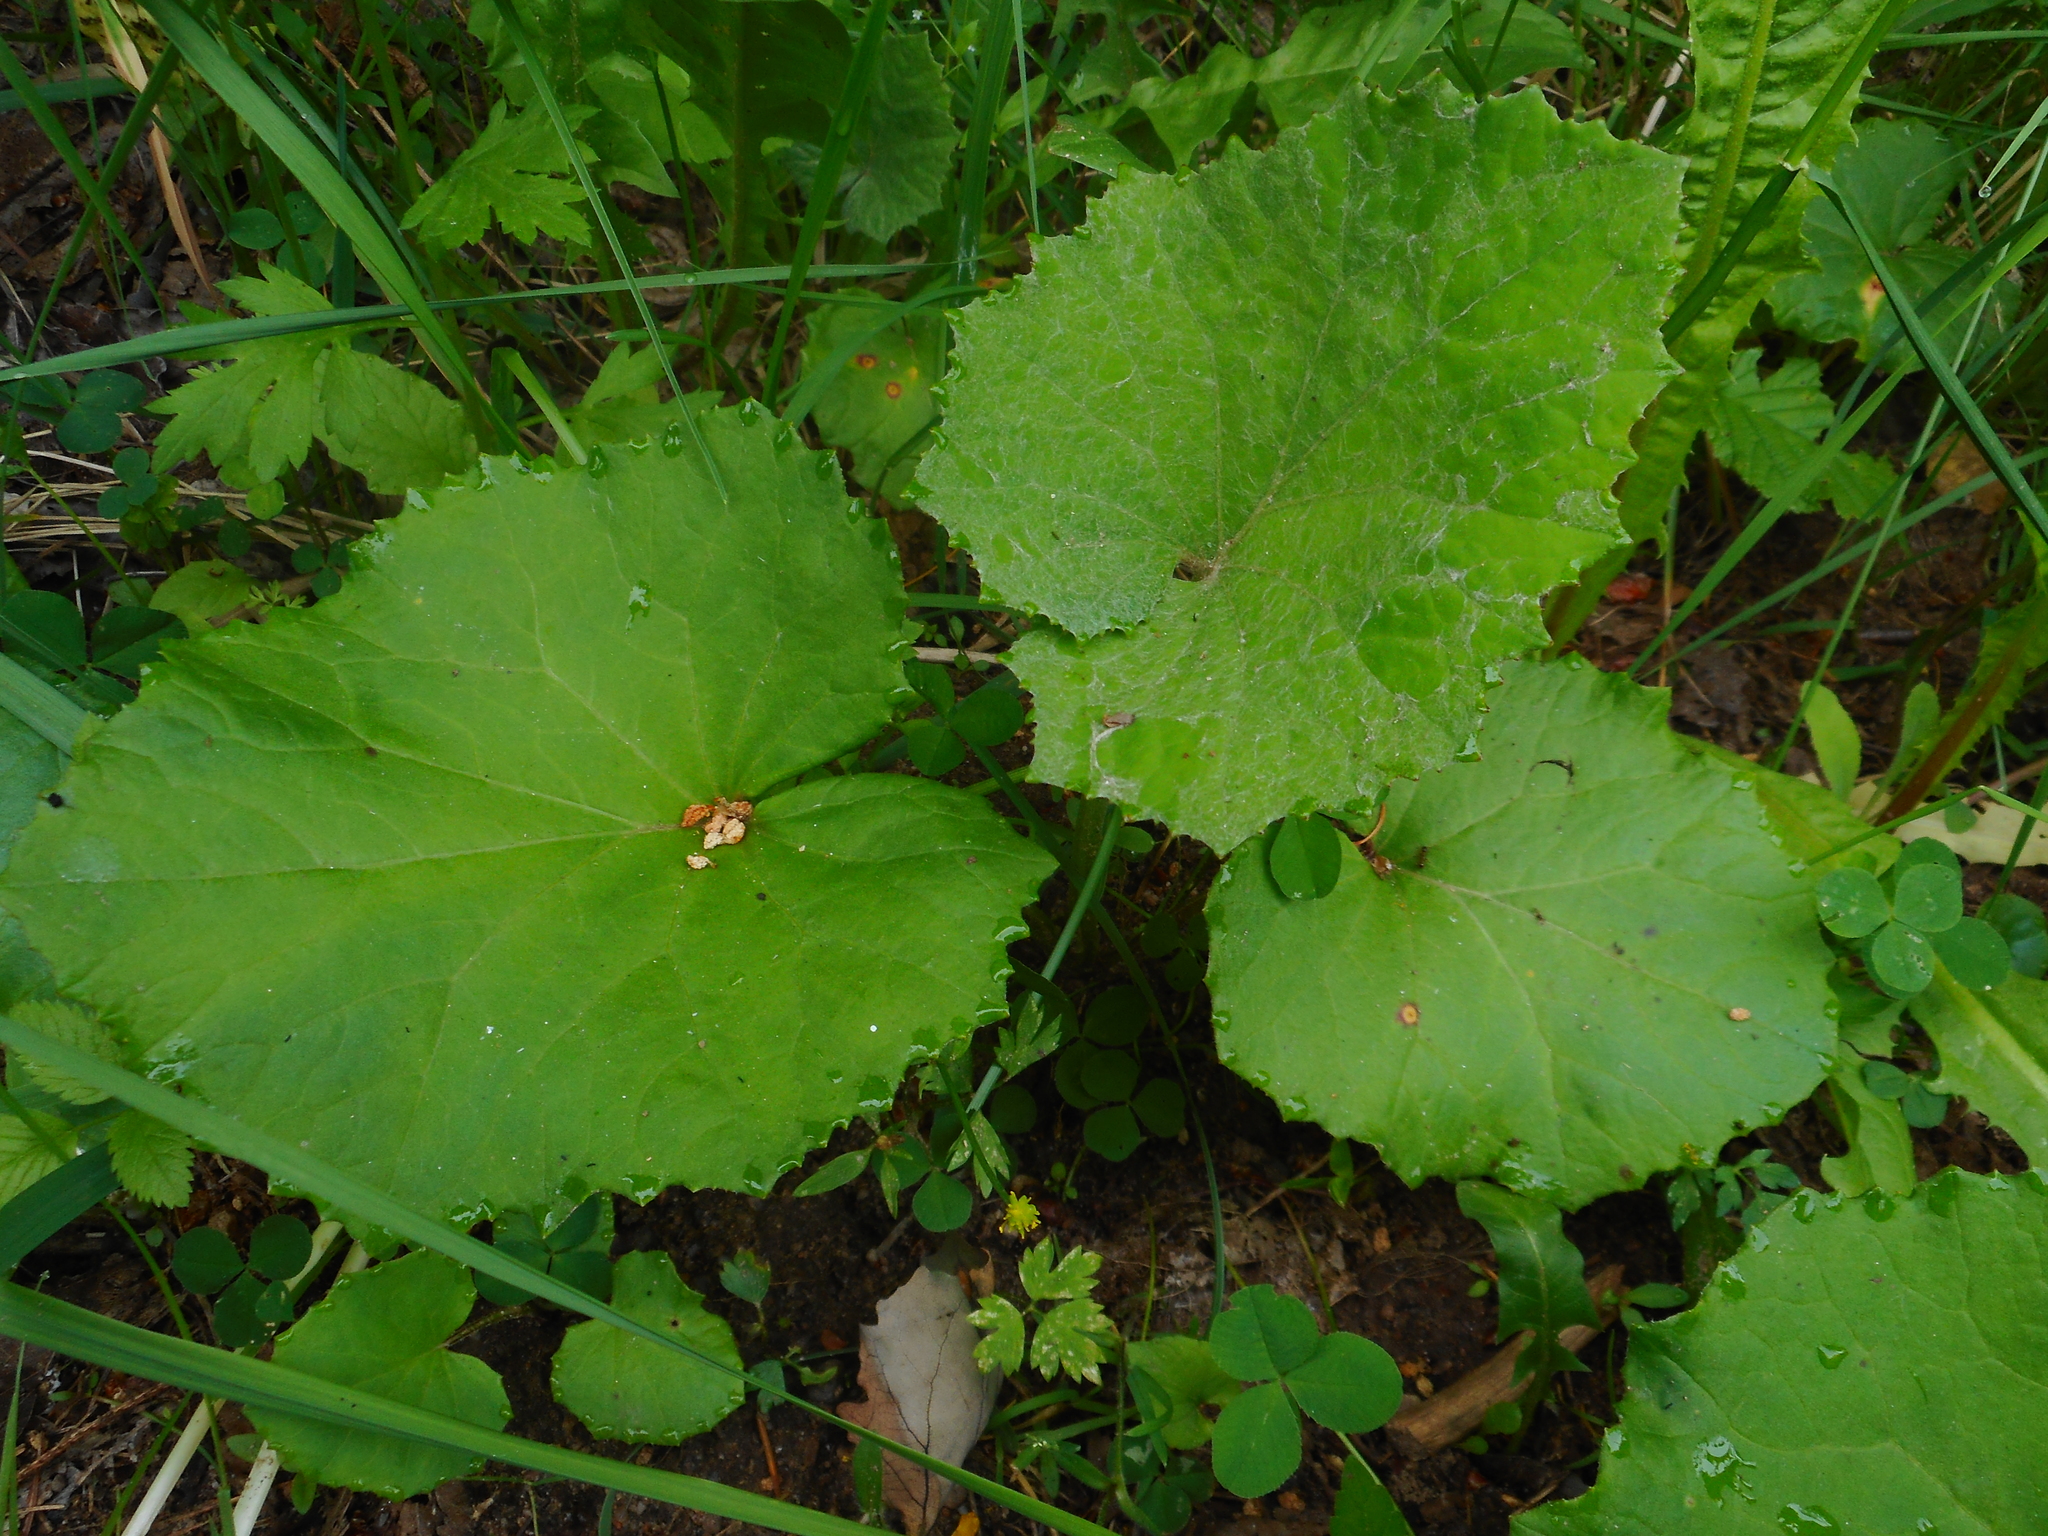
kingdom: Plantae
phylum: Tracheophyta
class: Magnoliopsida
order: Asterales
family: Asteraceae
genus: Tussilago
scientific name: Tussilago farfara
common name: Coltsfoot
